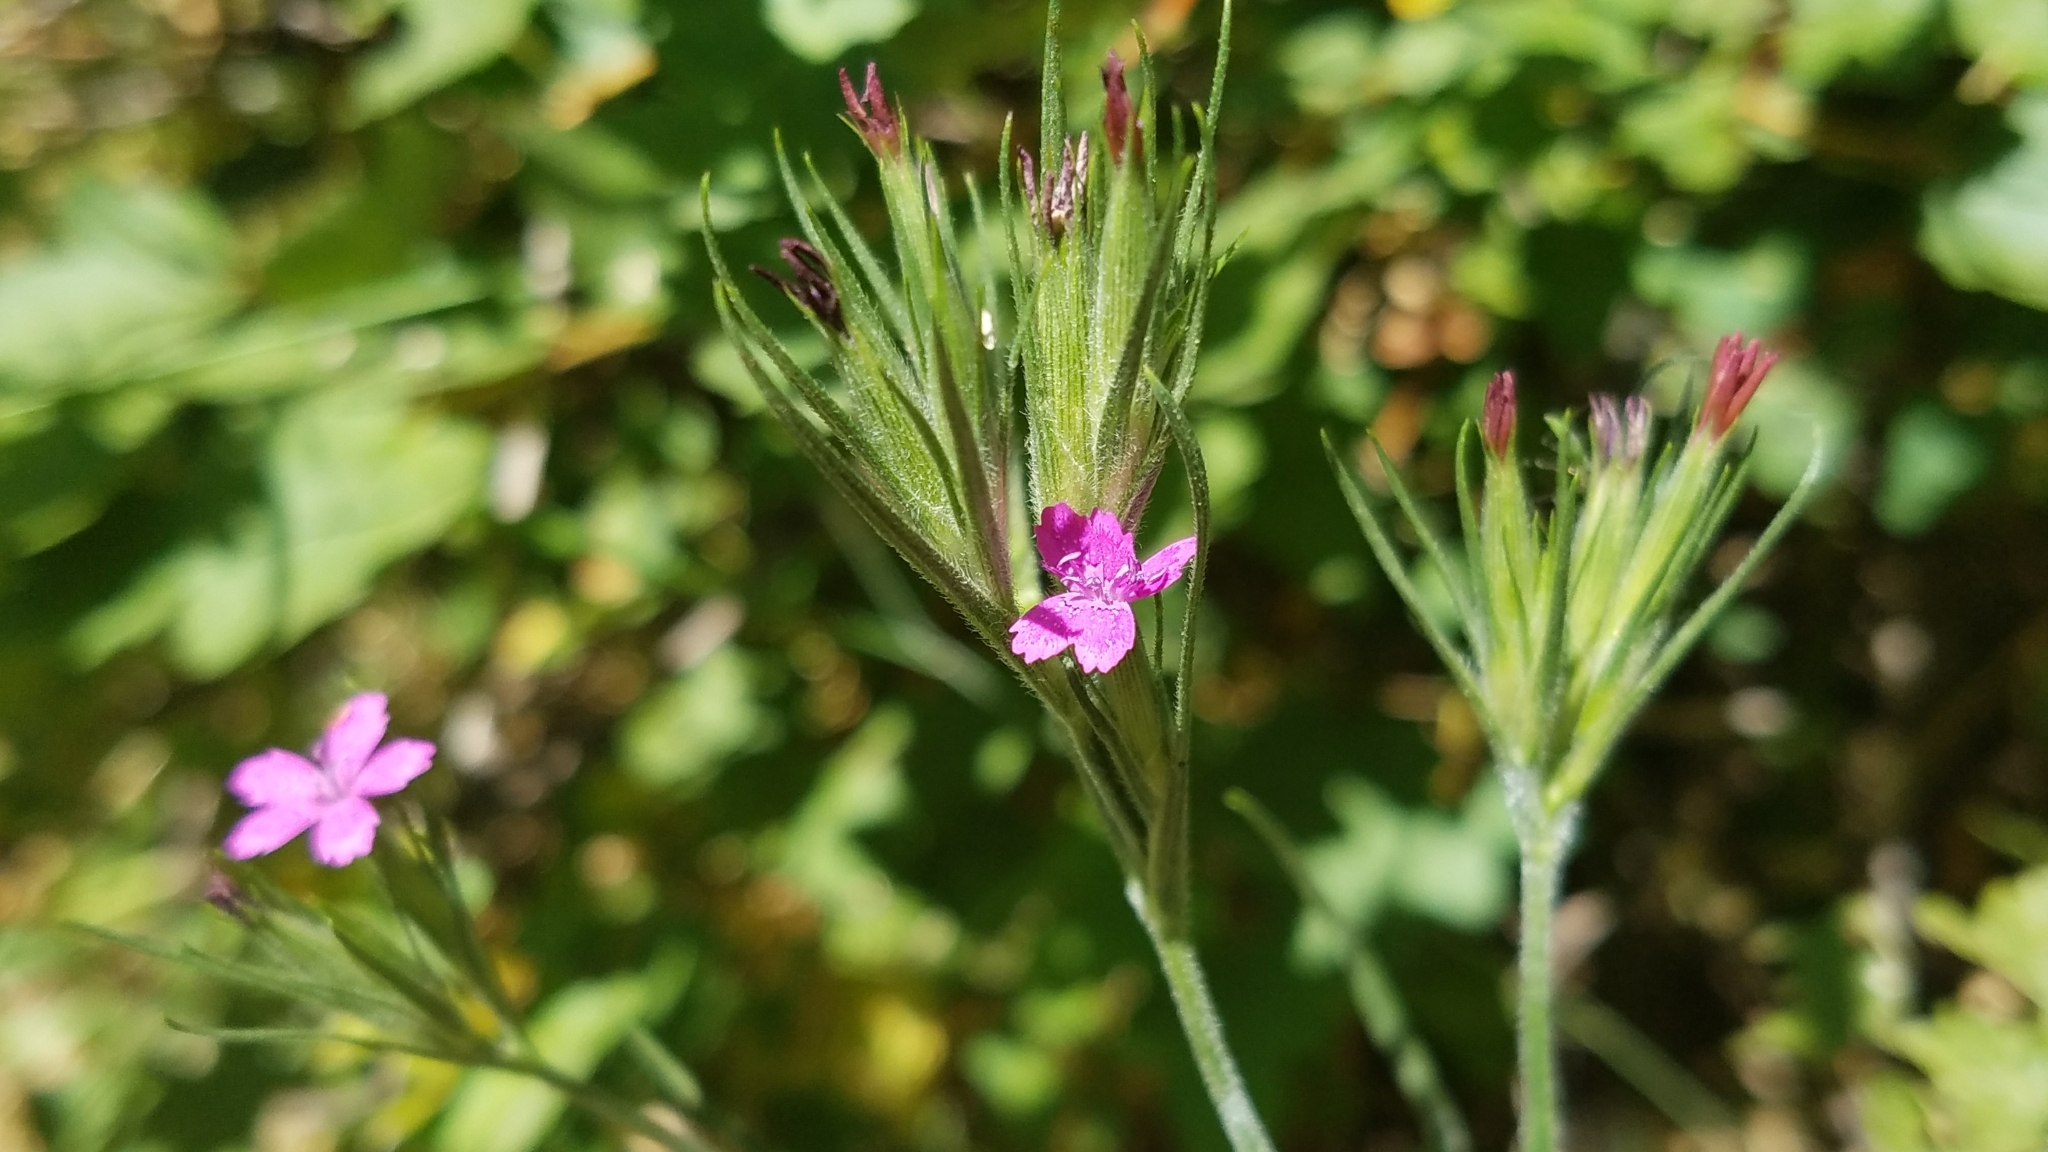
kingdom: Plantae
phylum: Tracheophyta
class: Magnoliopsida
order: Caryophyllales
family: Caryophyllaceae
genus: Dianthus
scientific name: Dianthus armeria
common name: Deptford pink
